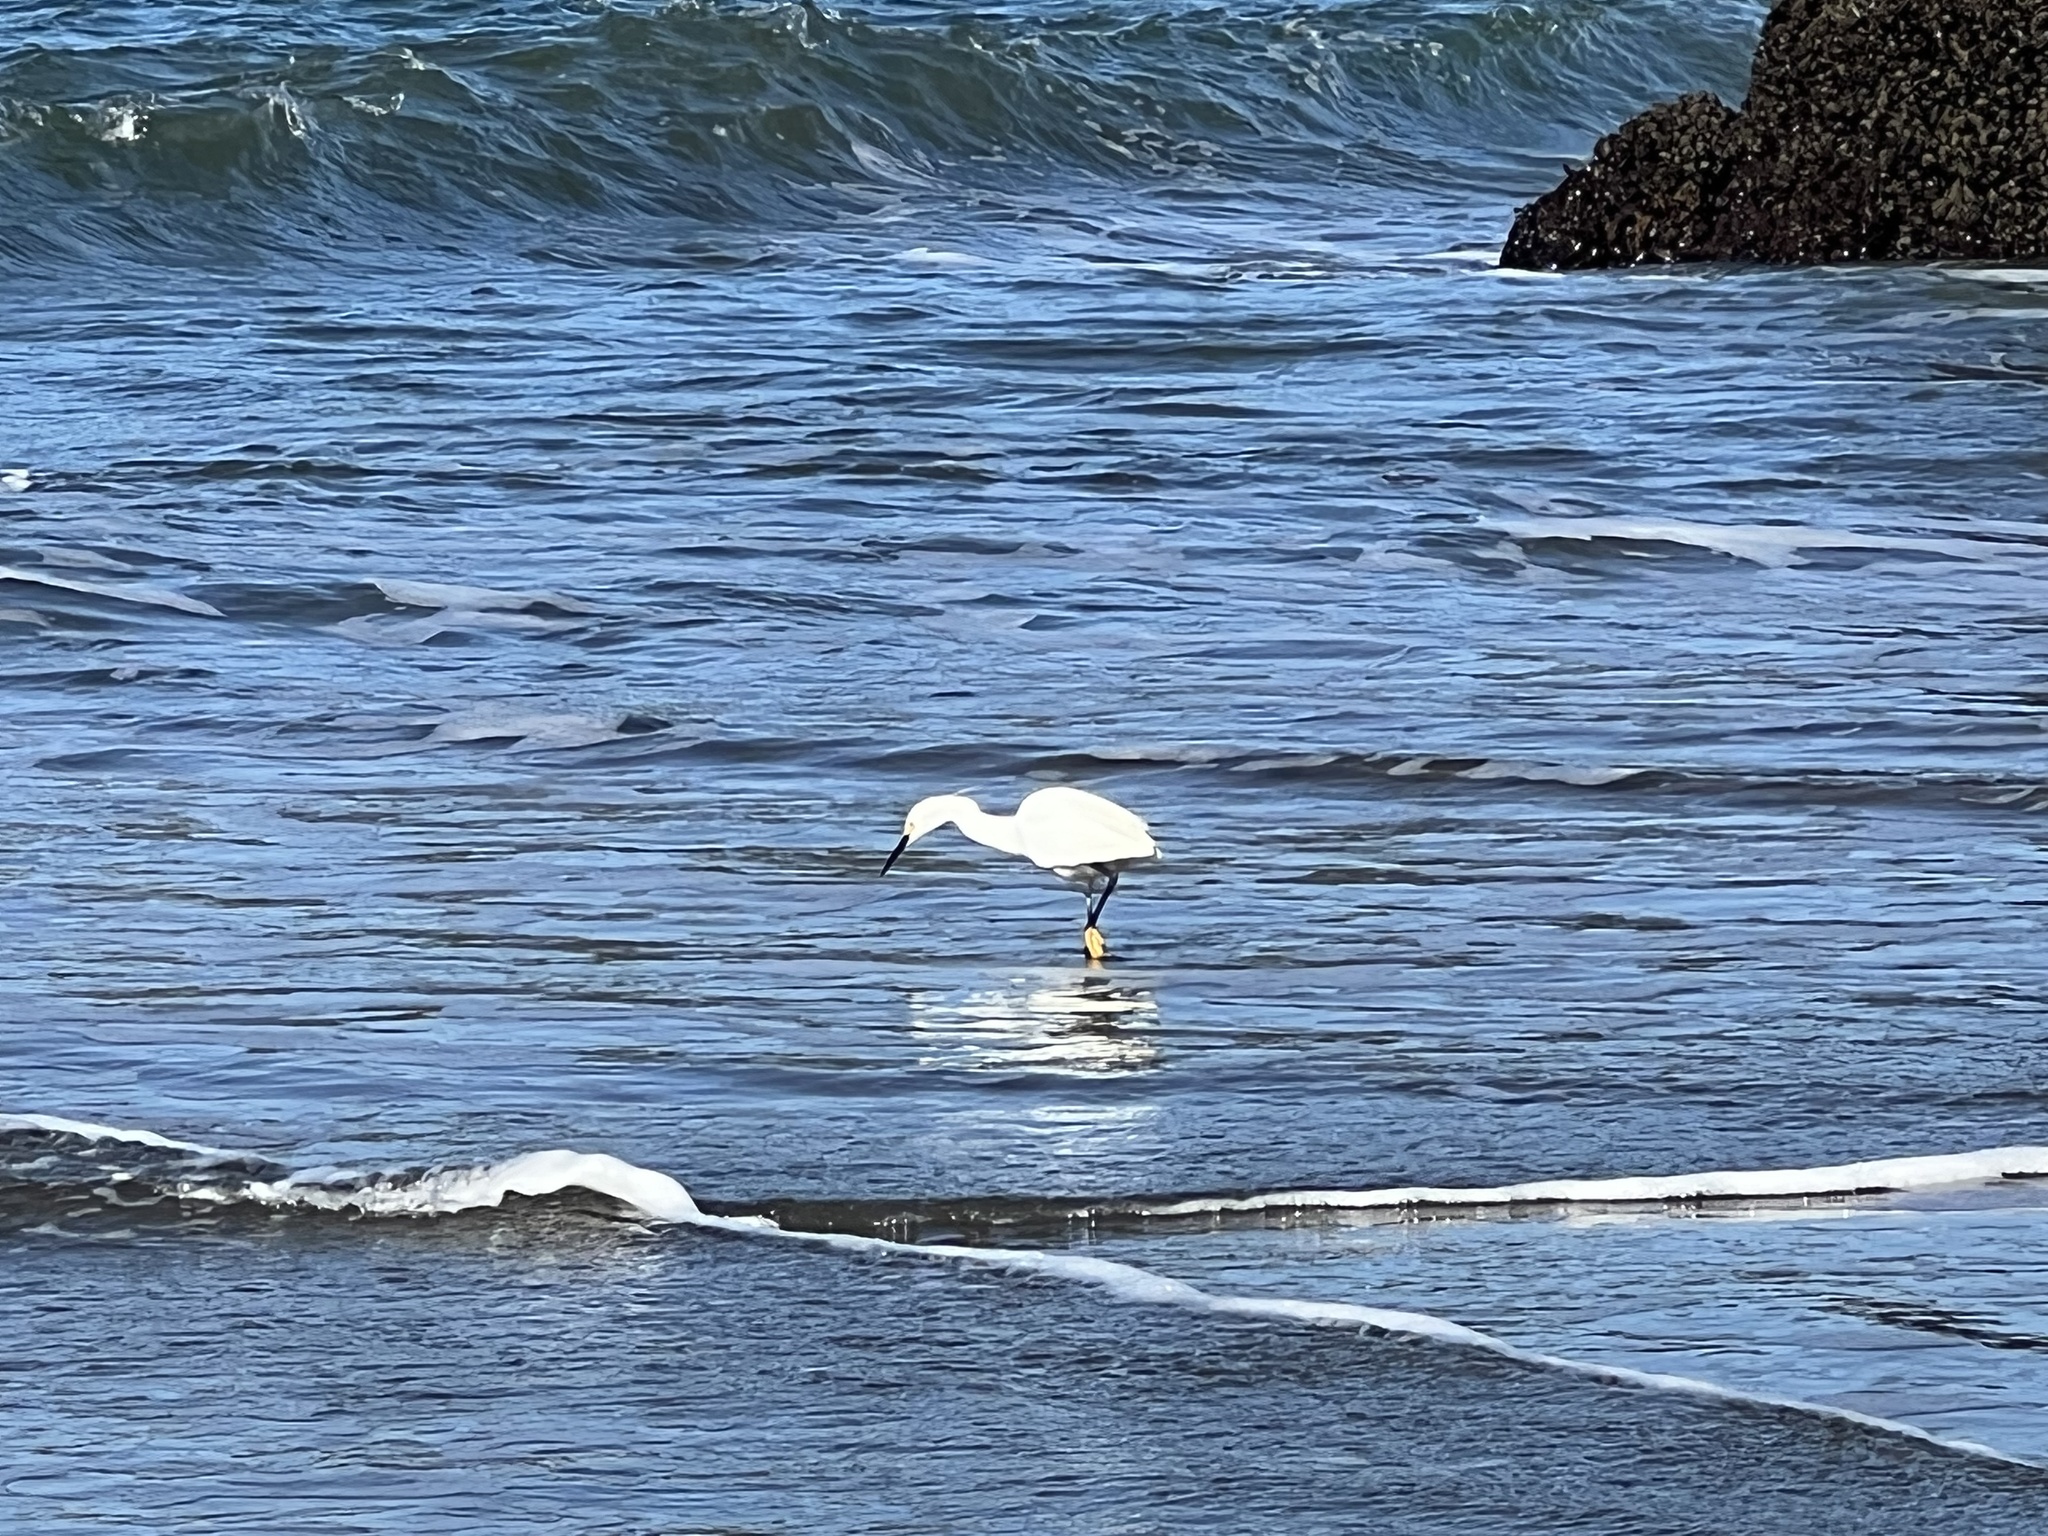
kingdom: Animalia
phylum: Chordata
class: Aves
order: Pelecaniformes
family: Ardeidae
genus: Egretta
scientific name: Egretta thula
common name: Snowy egret
